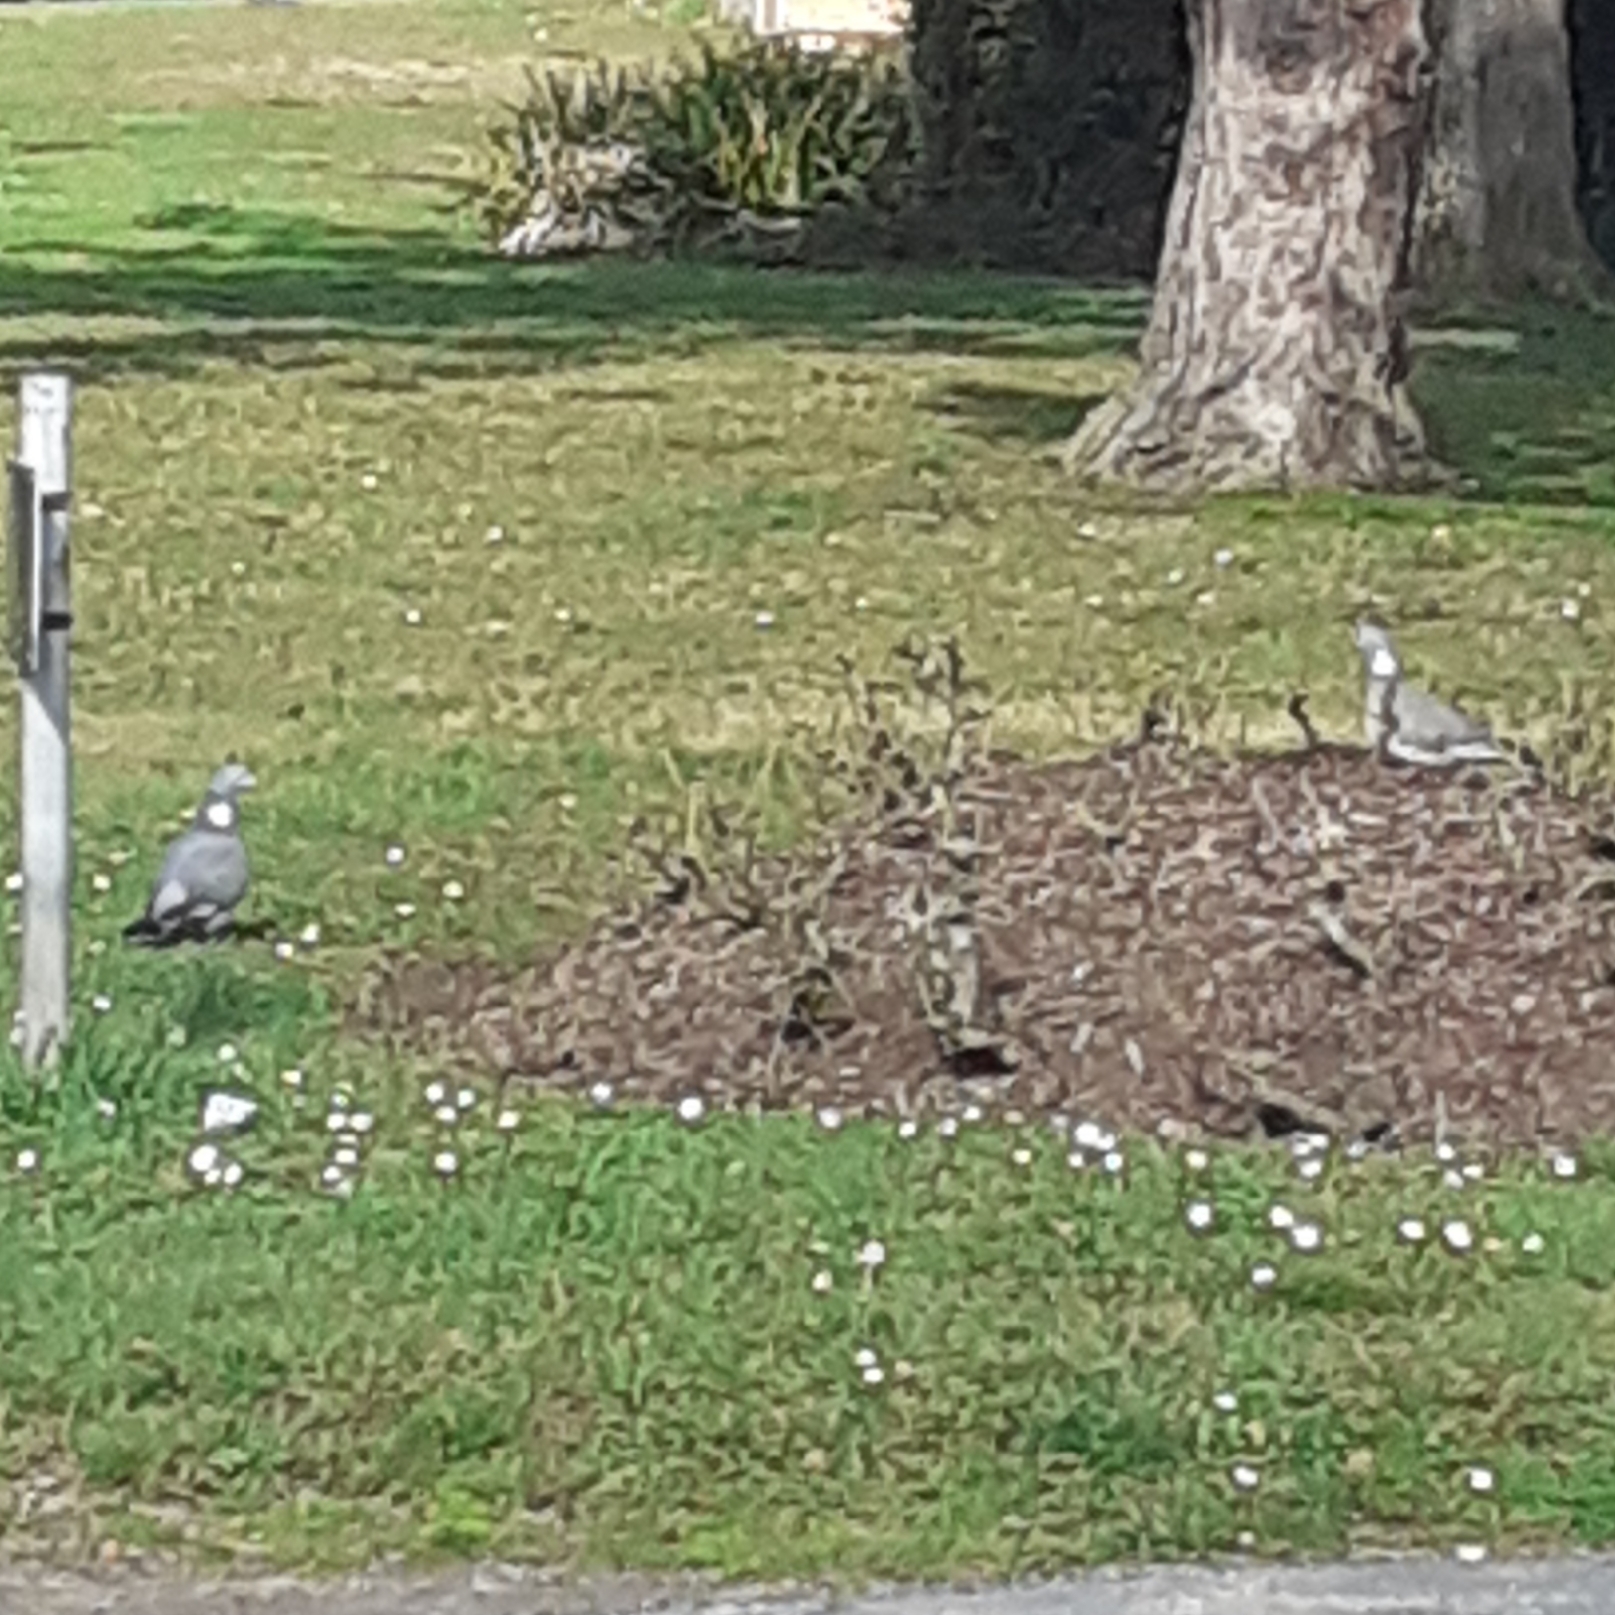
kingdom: Animalia
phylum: Chordata
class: Aves
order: Columbiformes
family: Columbidae
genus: Columba
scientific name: Columba palumbus
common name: Common wood pigeon
